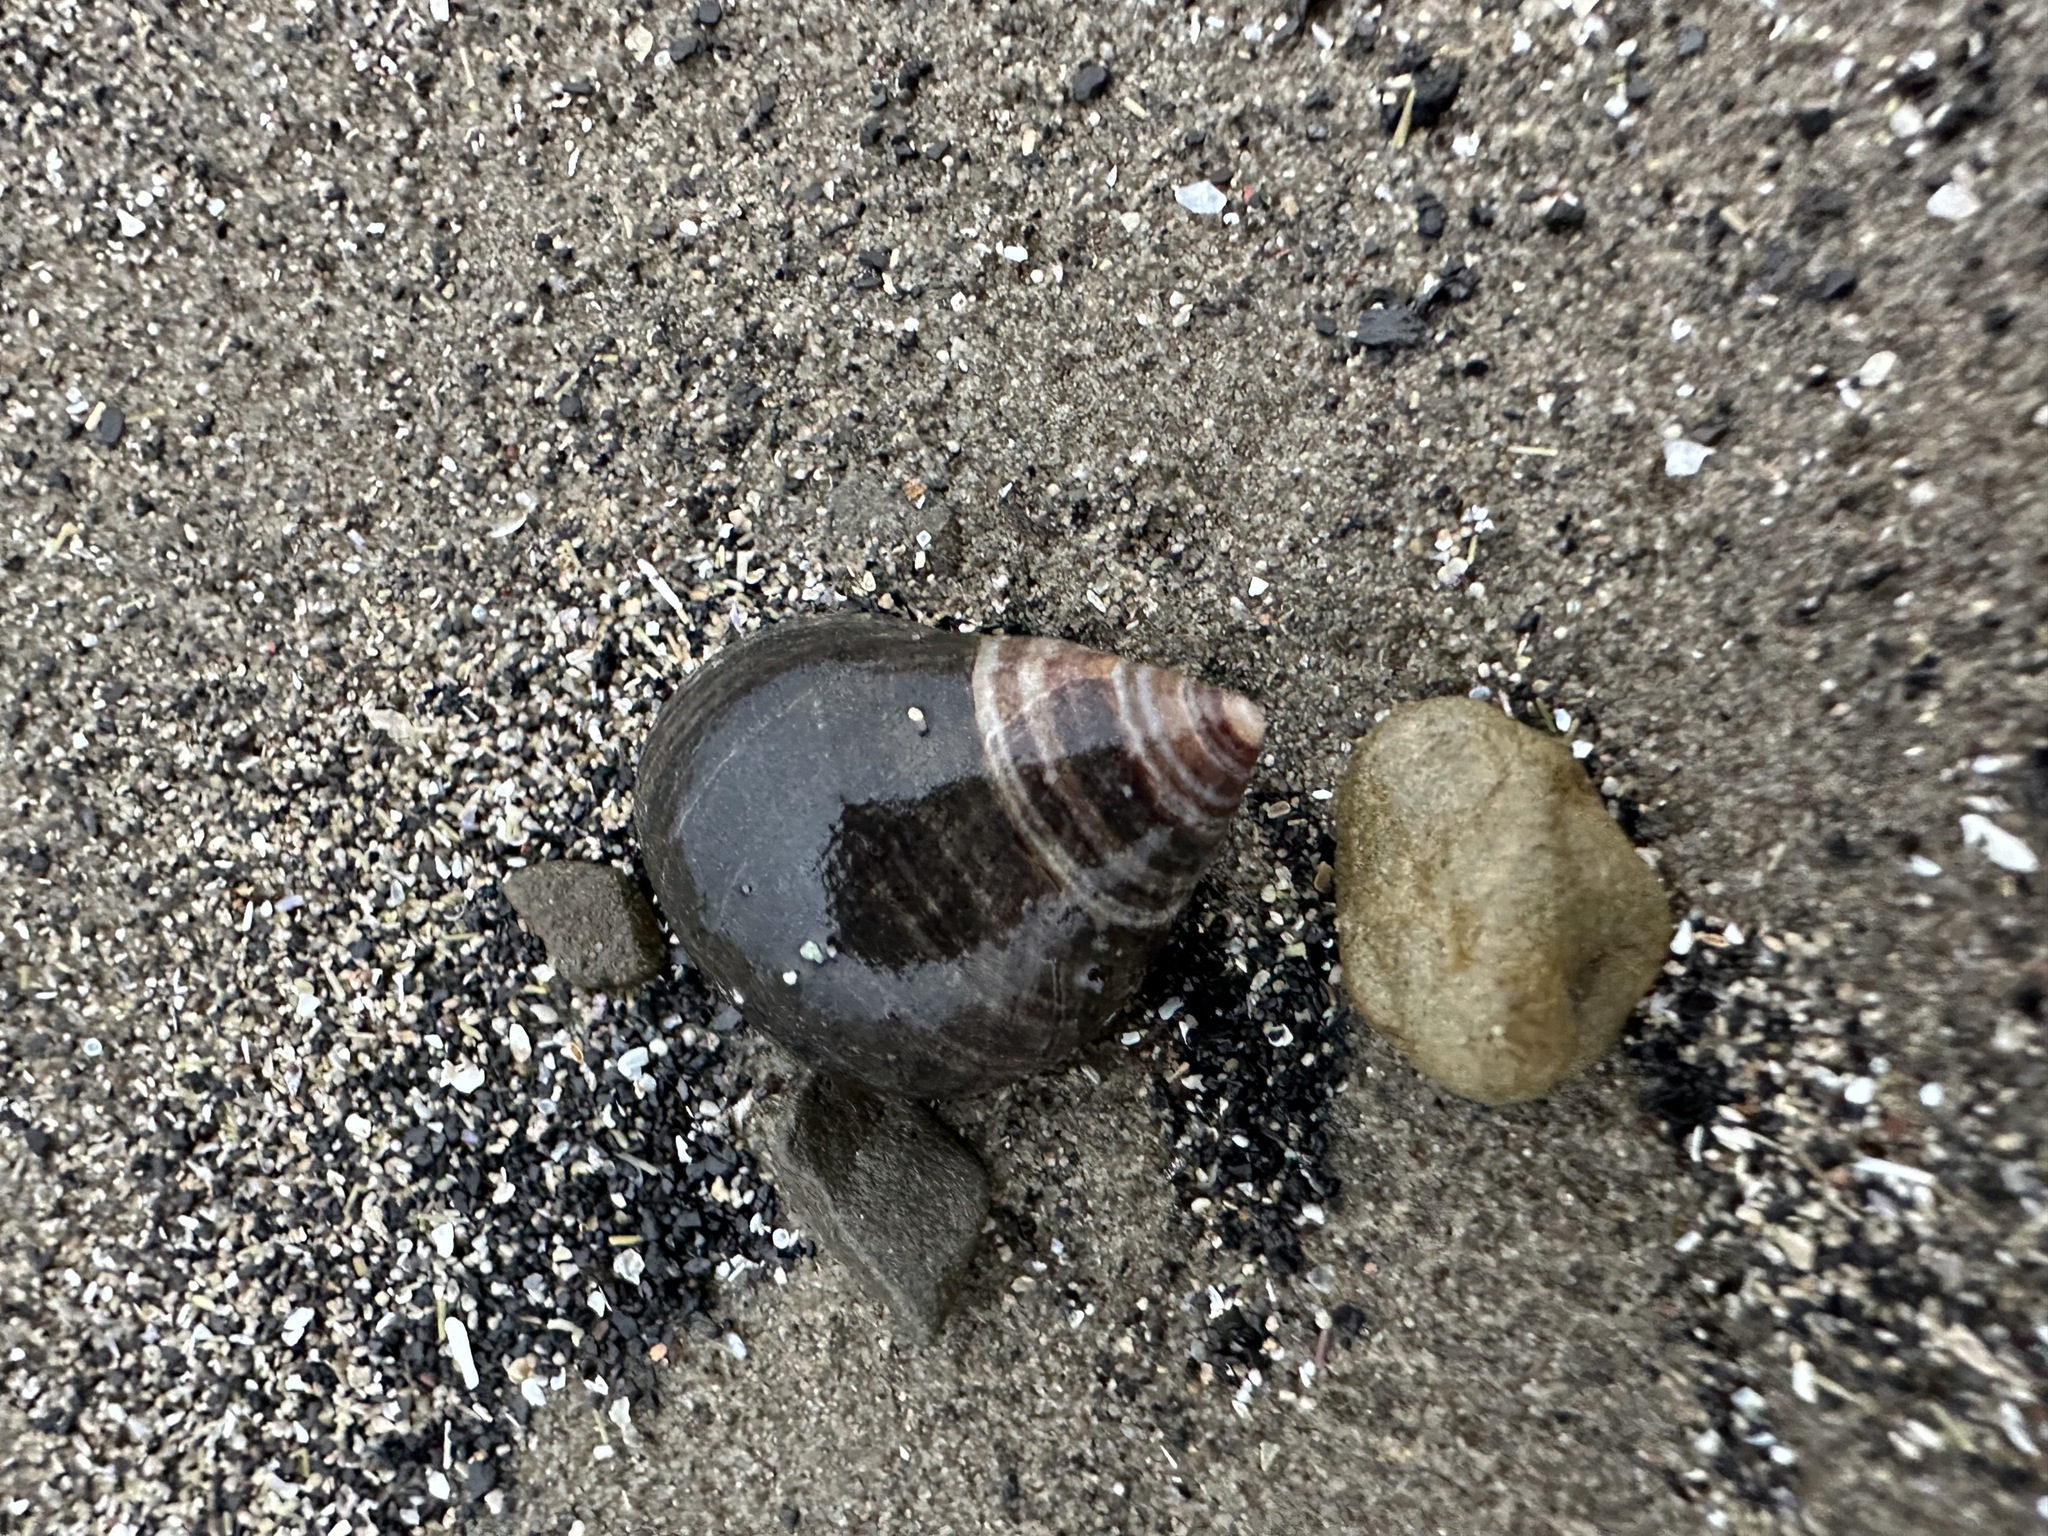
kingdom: Animalia
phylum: Mollusca
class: Gastropoda
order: Littorinimorpha
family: Littorinidae
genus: Littorina
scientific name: Littorina littorea
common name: Common periwinkle
